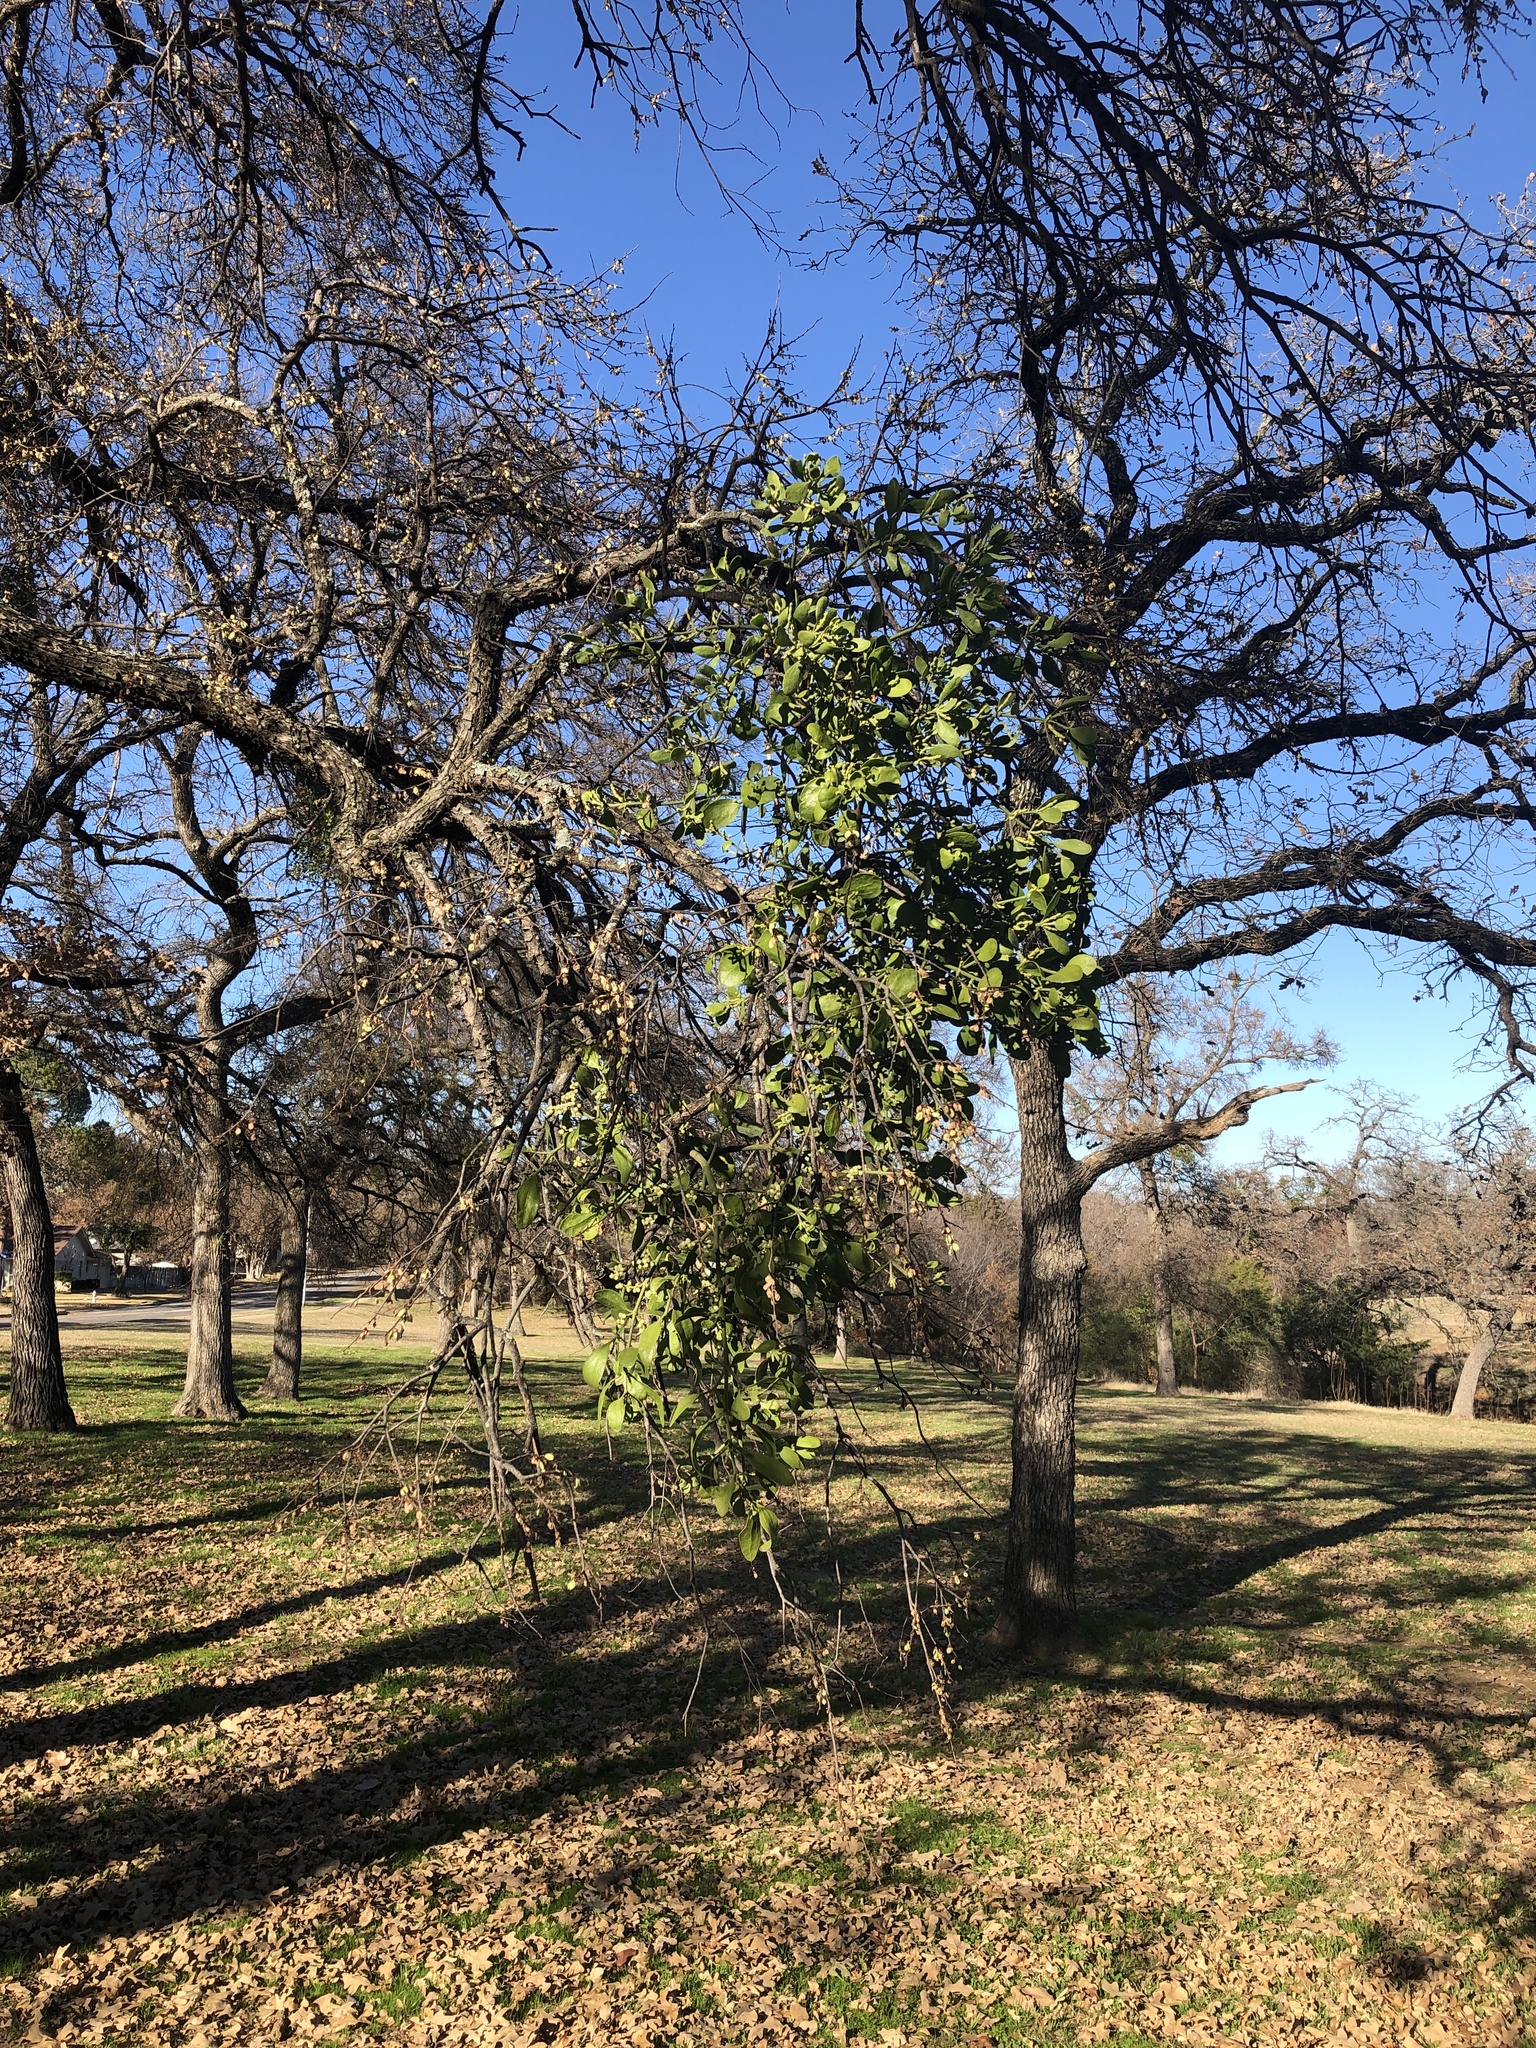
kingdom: Plantae
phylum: Tracheophyta
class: Magnoliopsida
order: Santalales
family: Viscaceae
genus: Phoradendron
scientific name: Phoradendron leucarpum
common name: Pacific mistletoe
